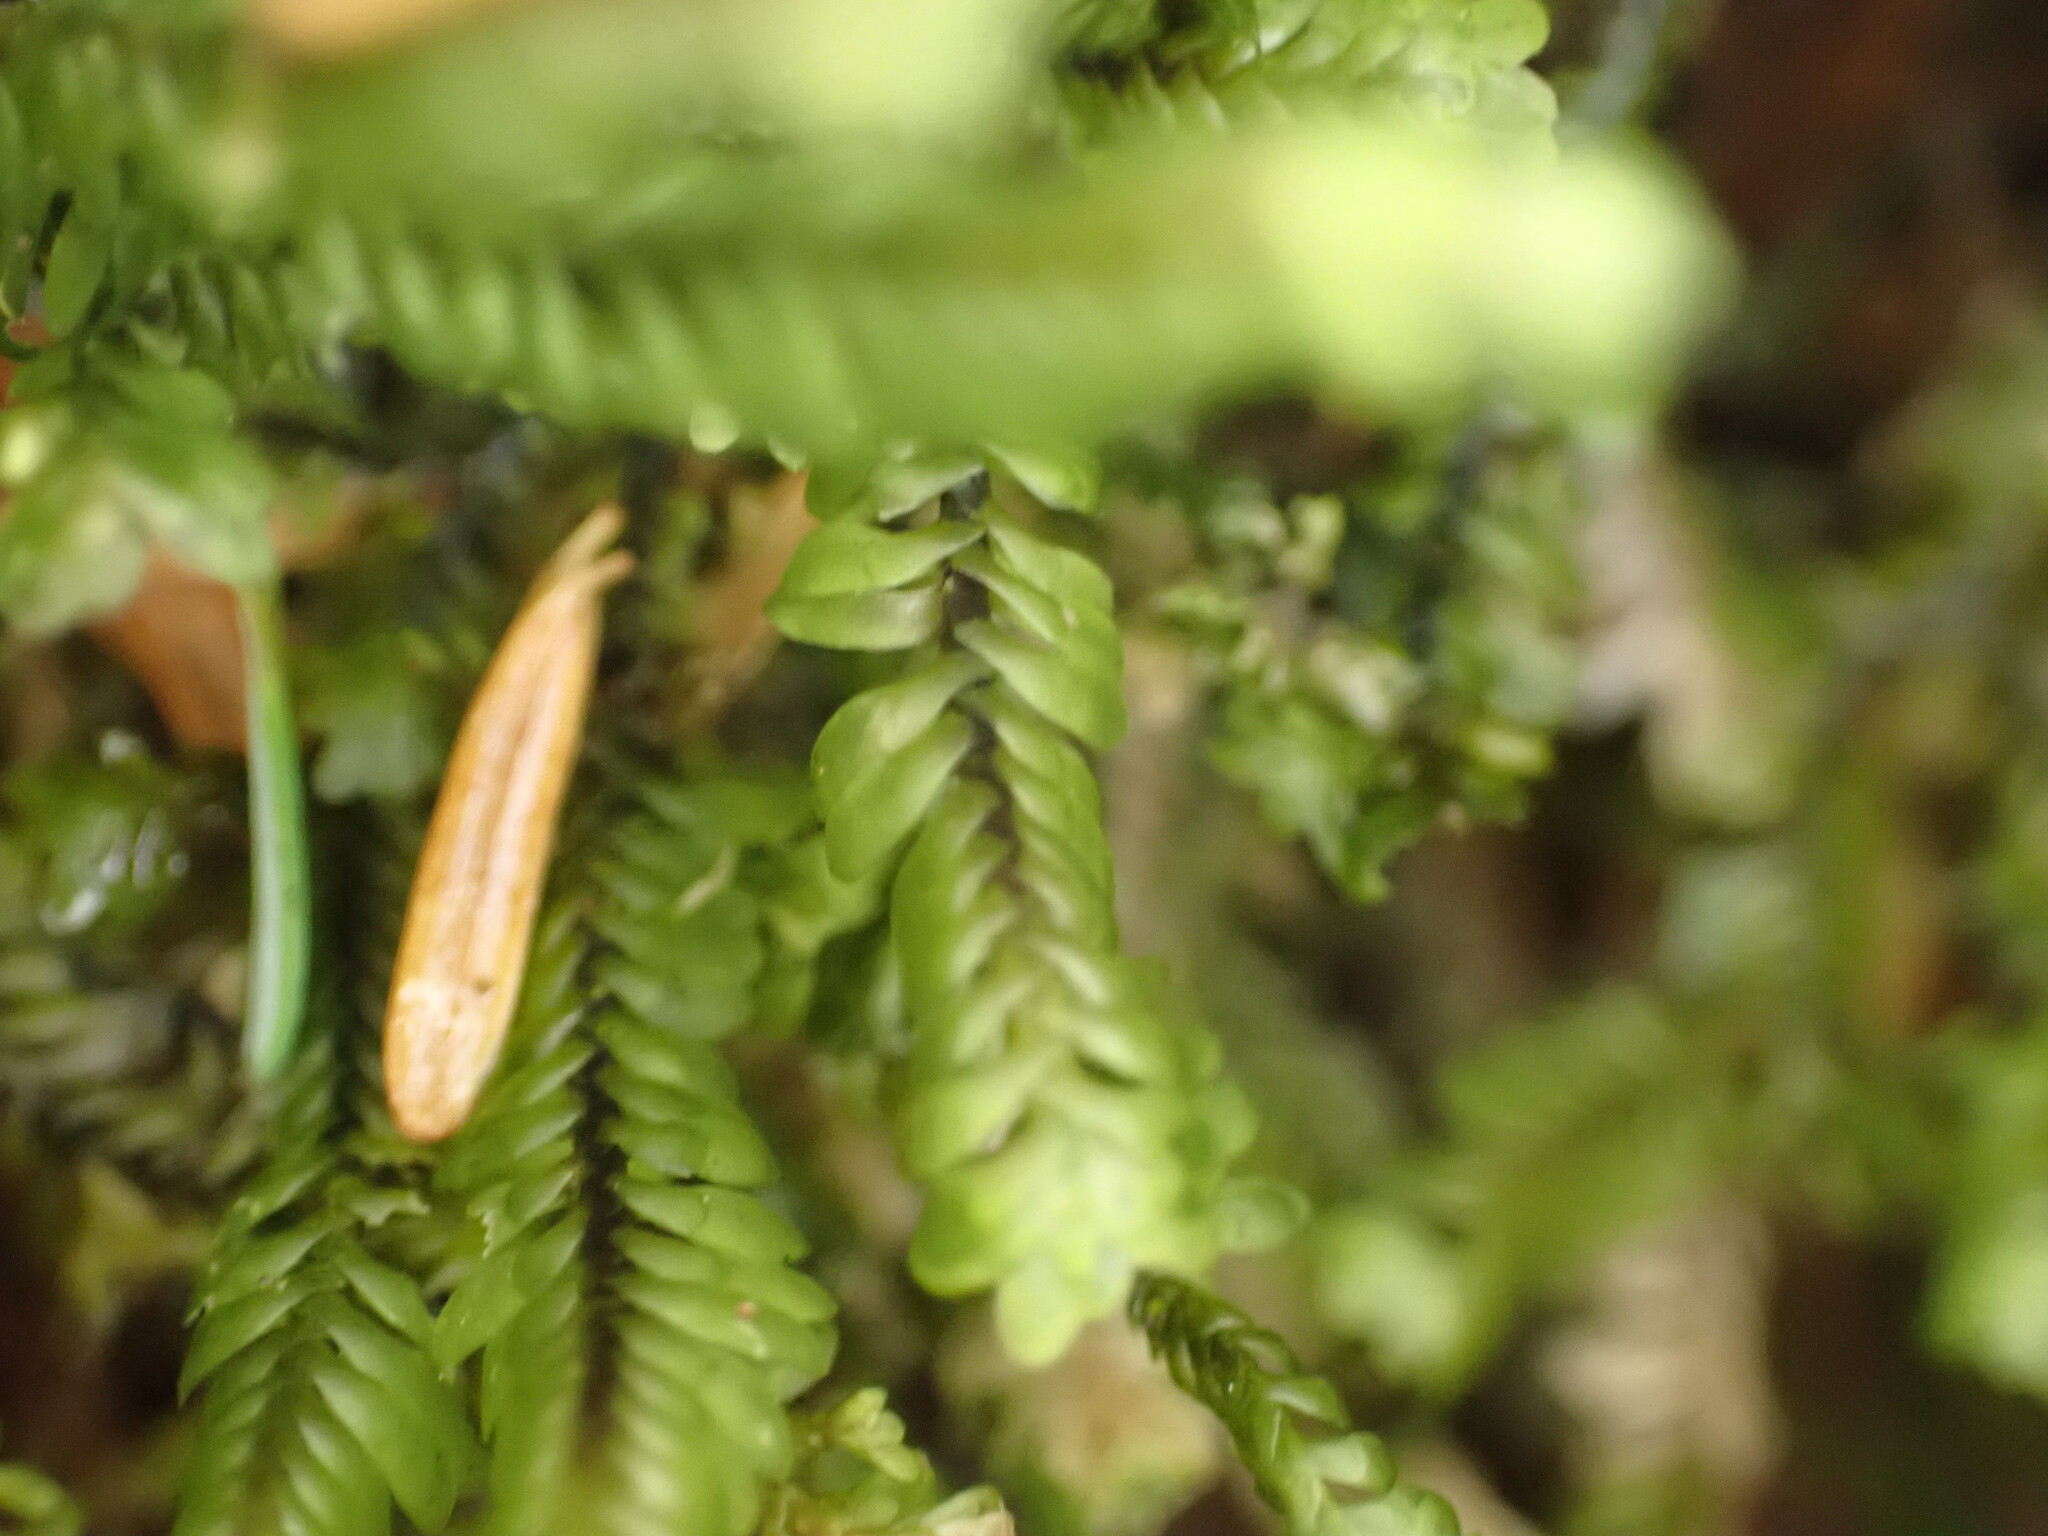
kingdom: Plantae
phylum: Marchantiophyta
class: Jungermanniopsida
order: Jungermanniales
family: Scapaniaceae
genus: Macrodiplophyllum
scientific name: Macrodiplophyllum rubrum
